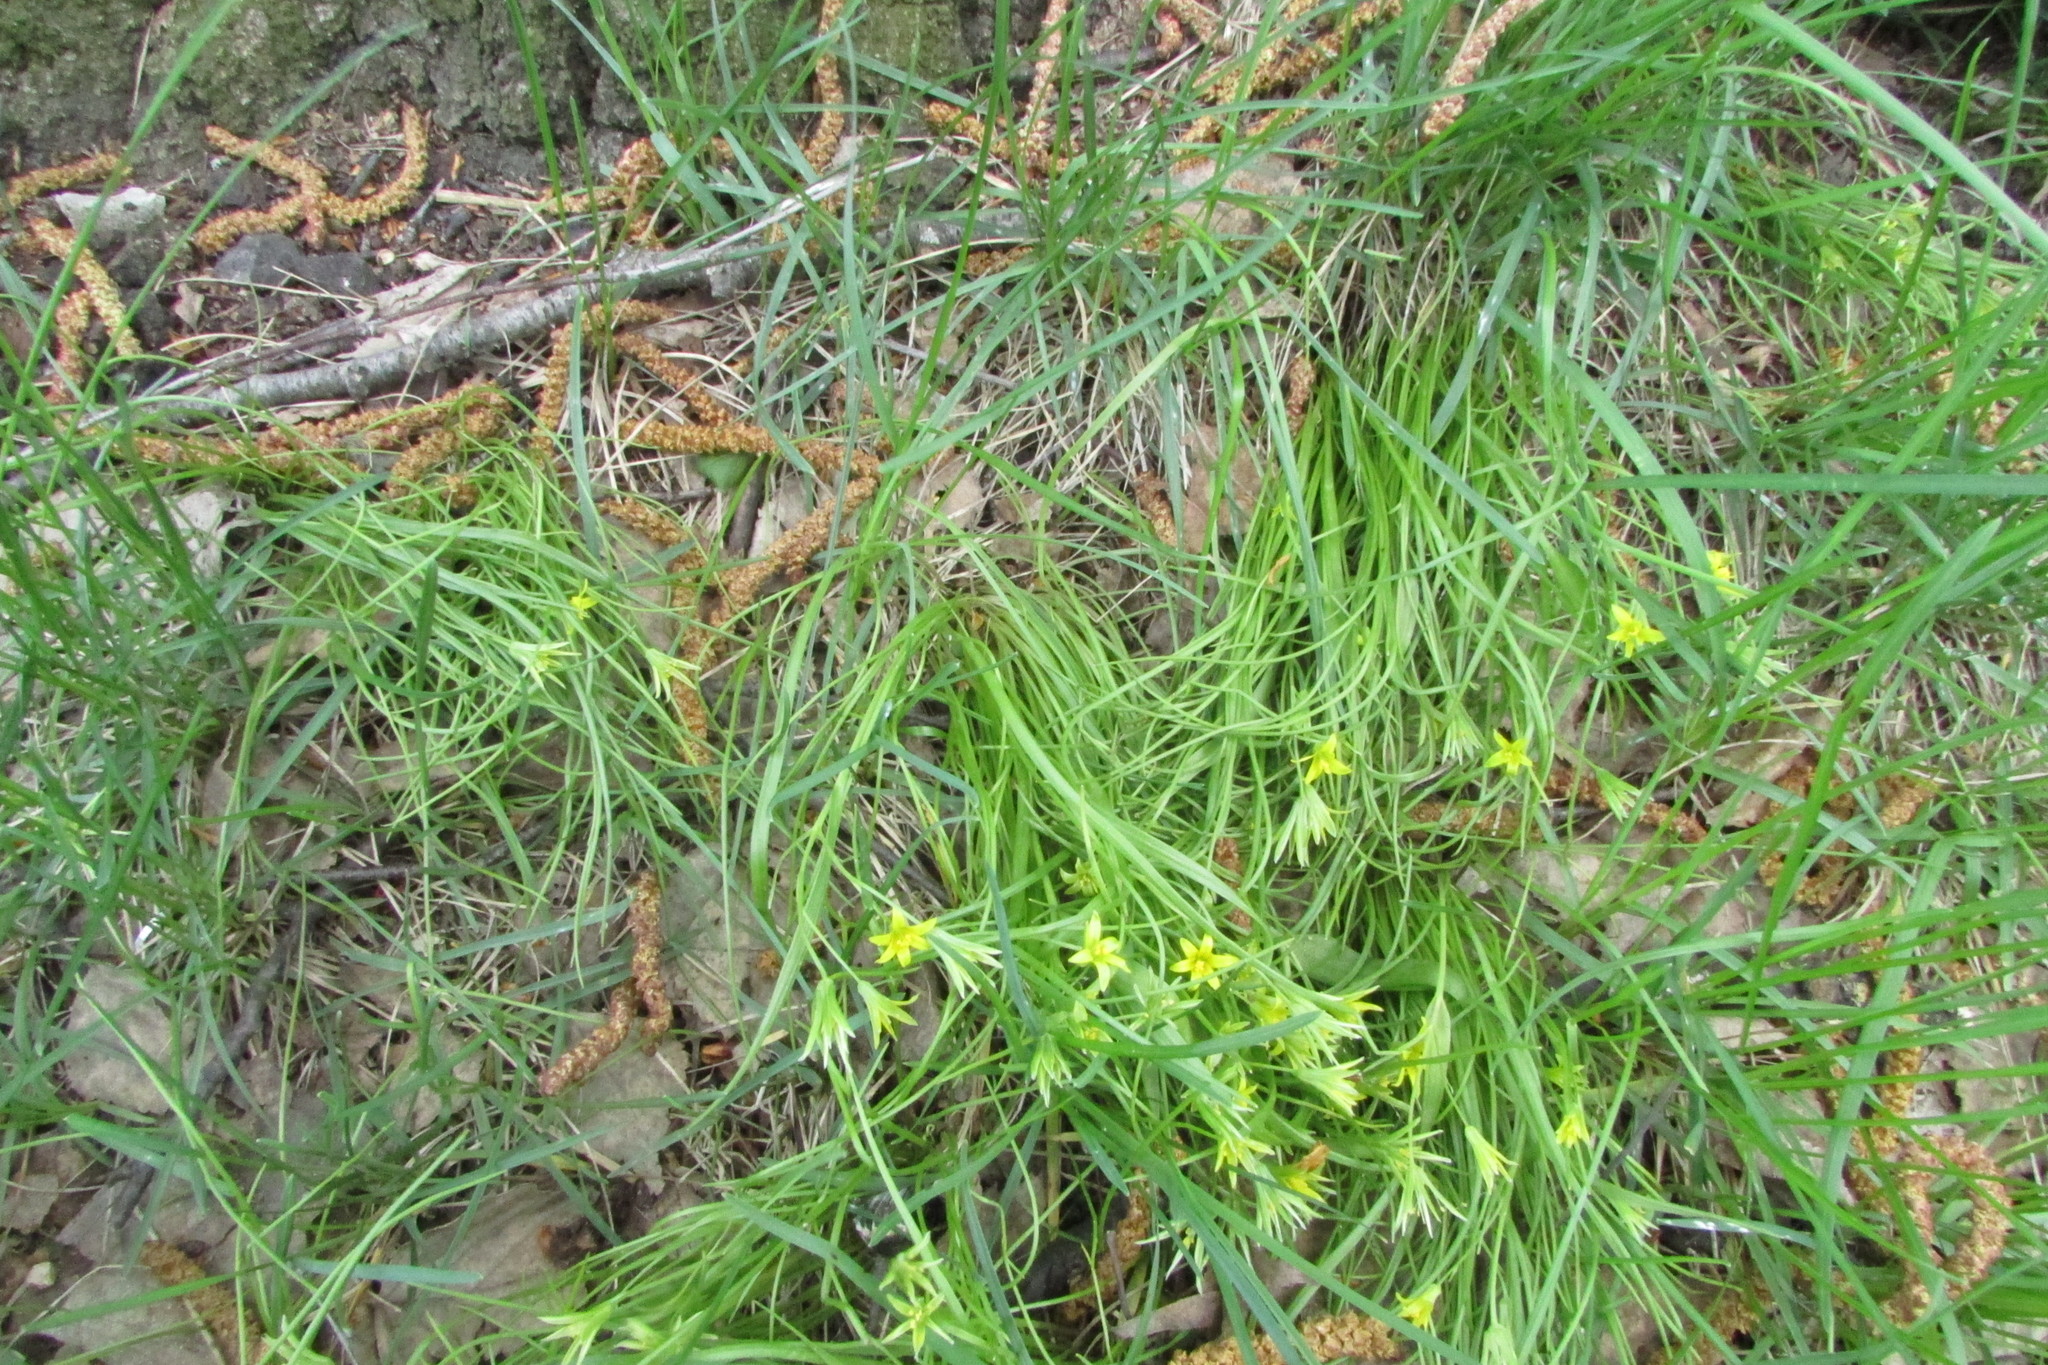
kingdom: Plantae
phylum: Tracheophyta
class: Liliopsida
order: Liliales
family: Liliaceae
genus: Gagea
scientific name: Gagea minima
